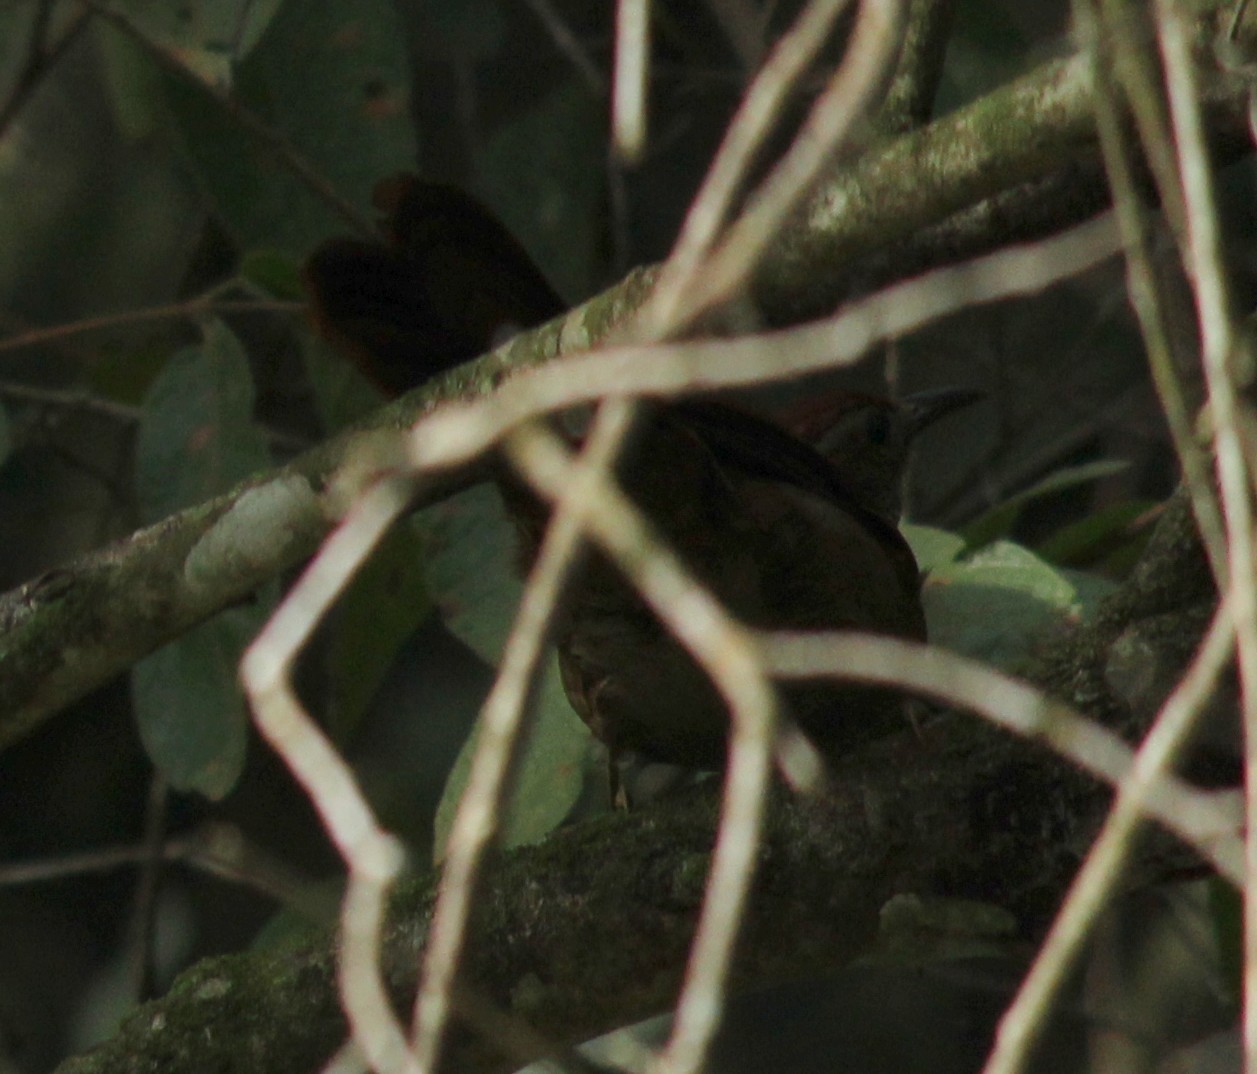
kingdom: Animalia
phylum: Chordata
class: Aves
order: Passeriformes
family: Furnariidae
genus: Clibanornis
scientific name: Clibanornis dendrocolaptoides
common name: Canebrake groundcreeper
